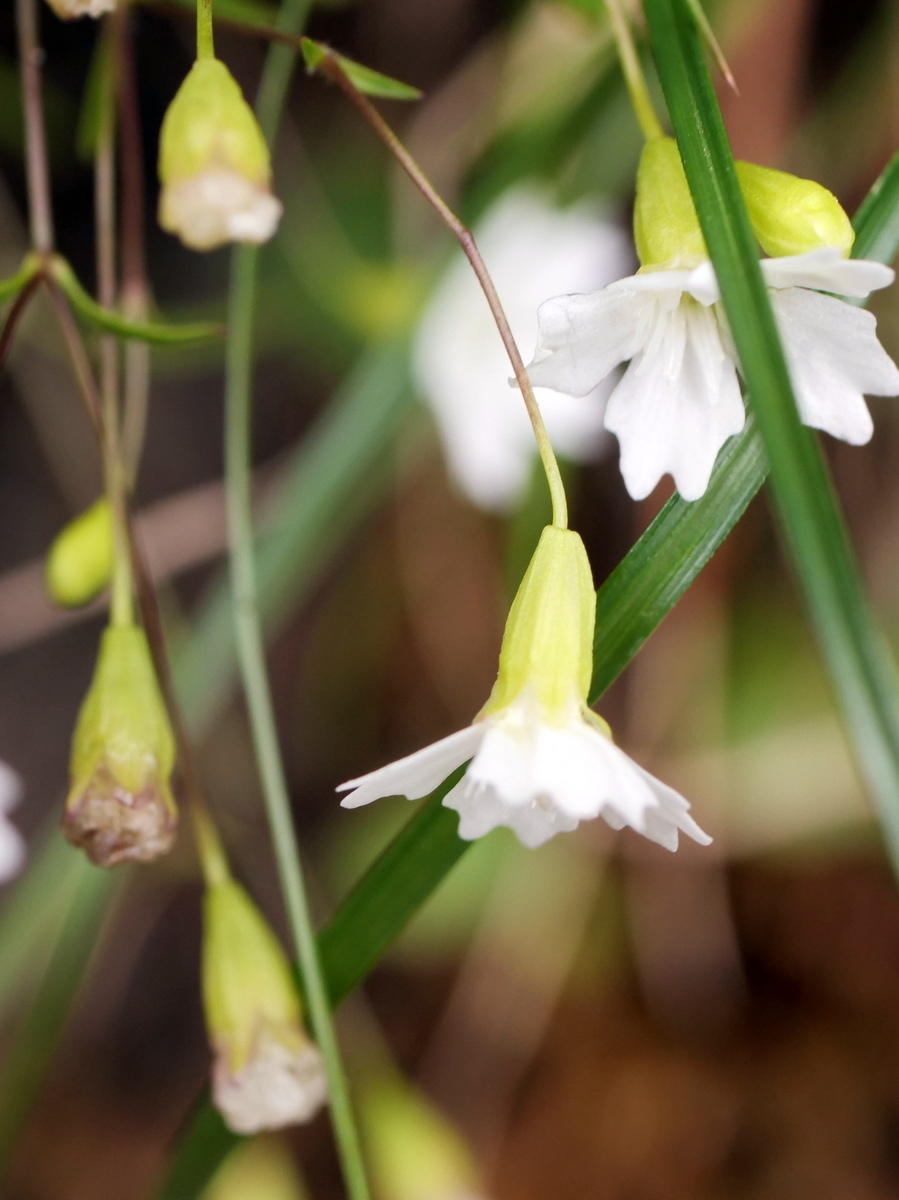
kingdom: Plantae
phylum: Tracheophyta
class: Magnoliopsida
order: Caryophyllales
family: Caryophyllaceae
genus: Heliosperma
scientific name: Heliosperma pusillum
